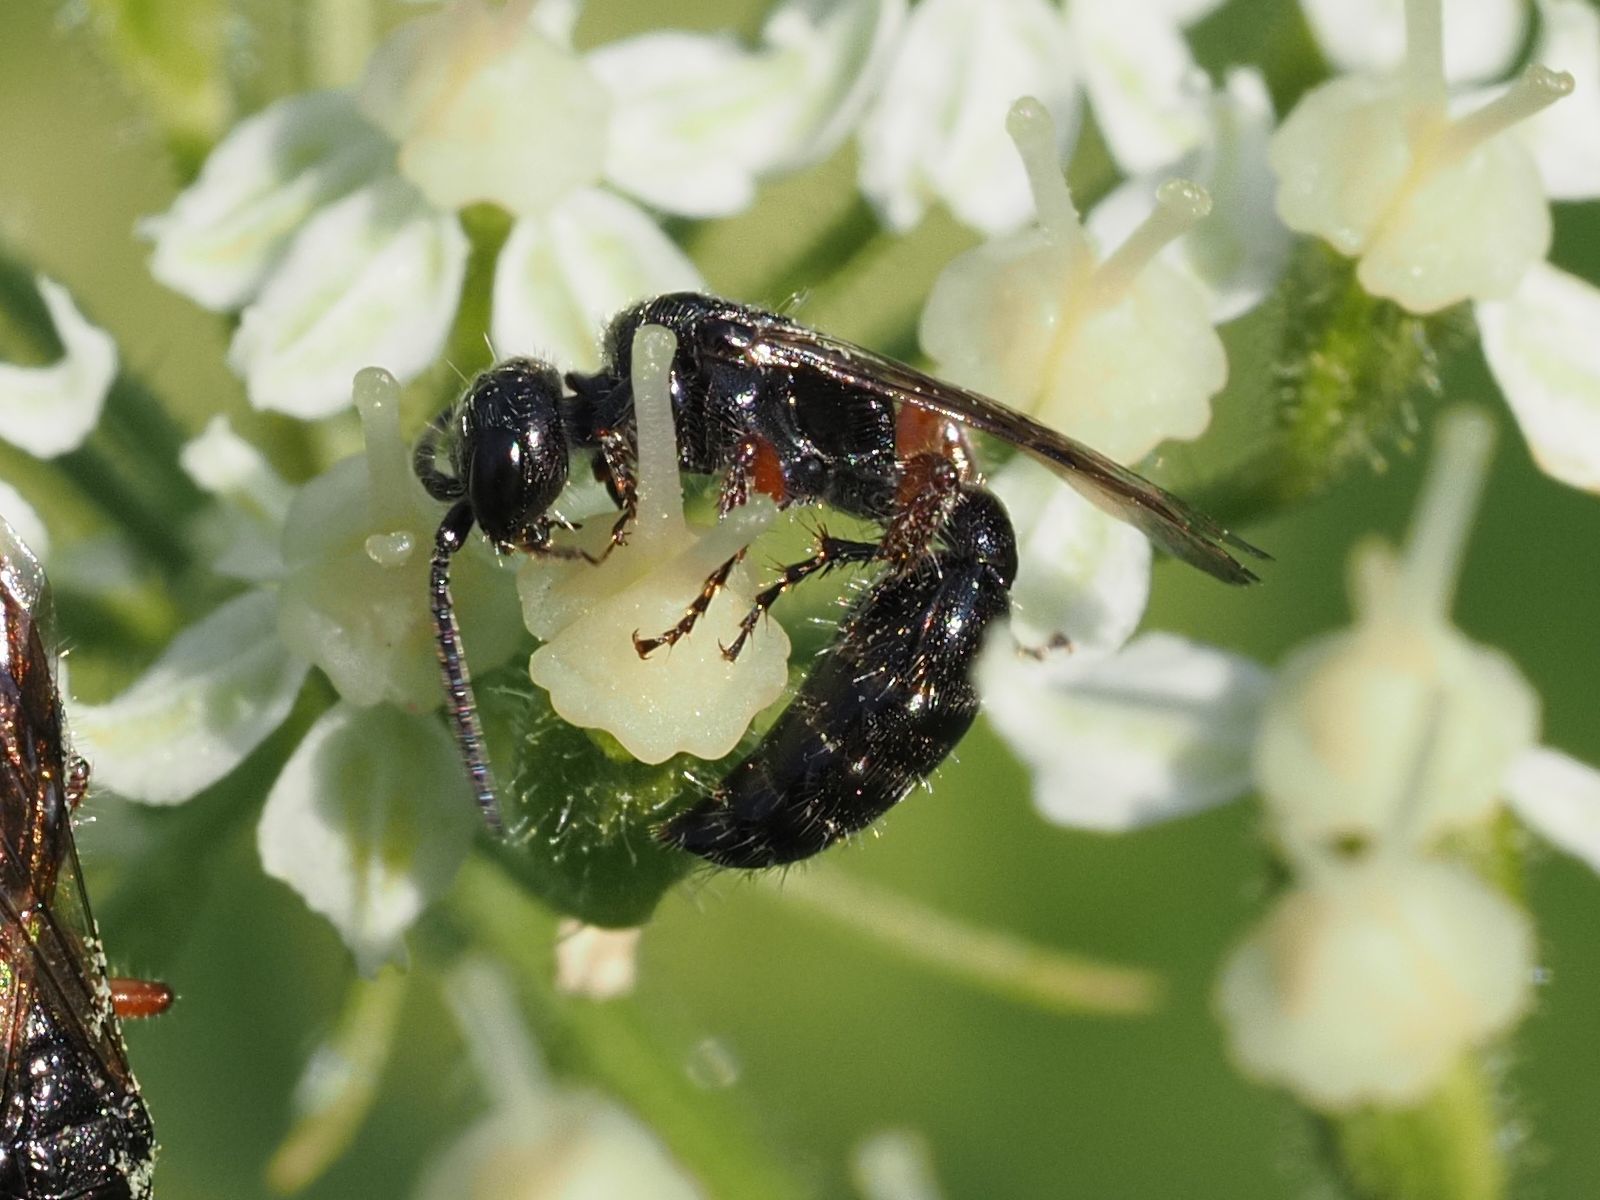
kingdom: Animalia
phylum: Arthropoda
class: Insecta
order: Hymenoptera
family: Tiphiidae
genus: Tiphia
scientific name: Tiphia femorata
